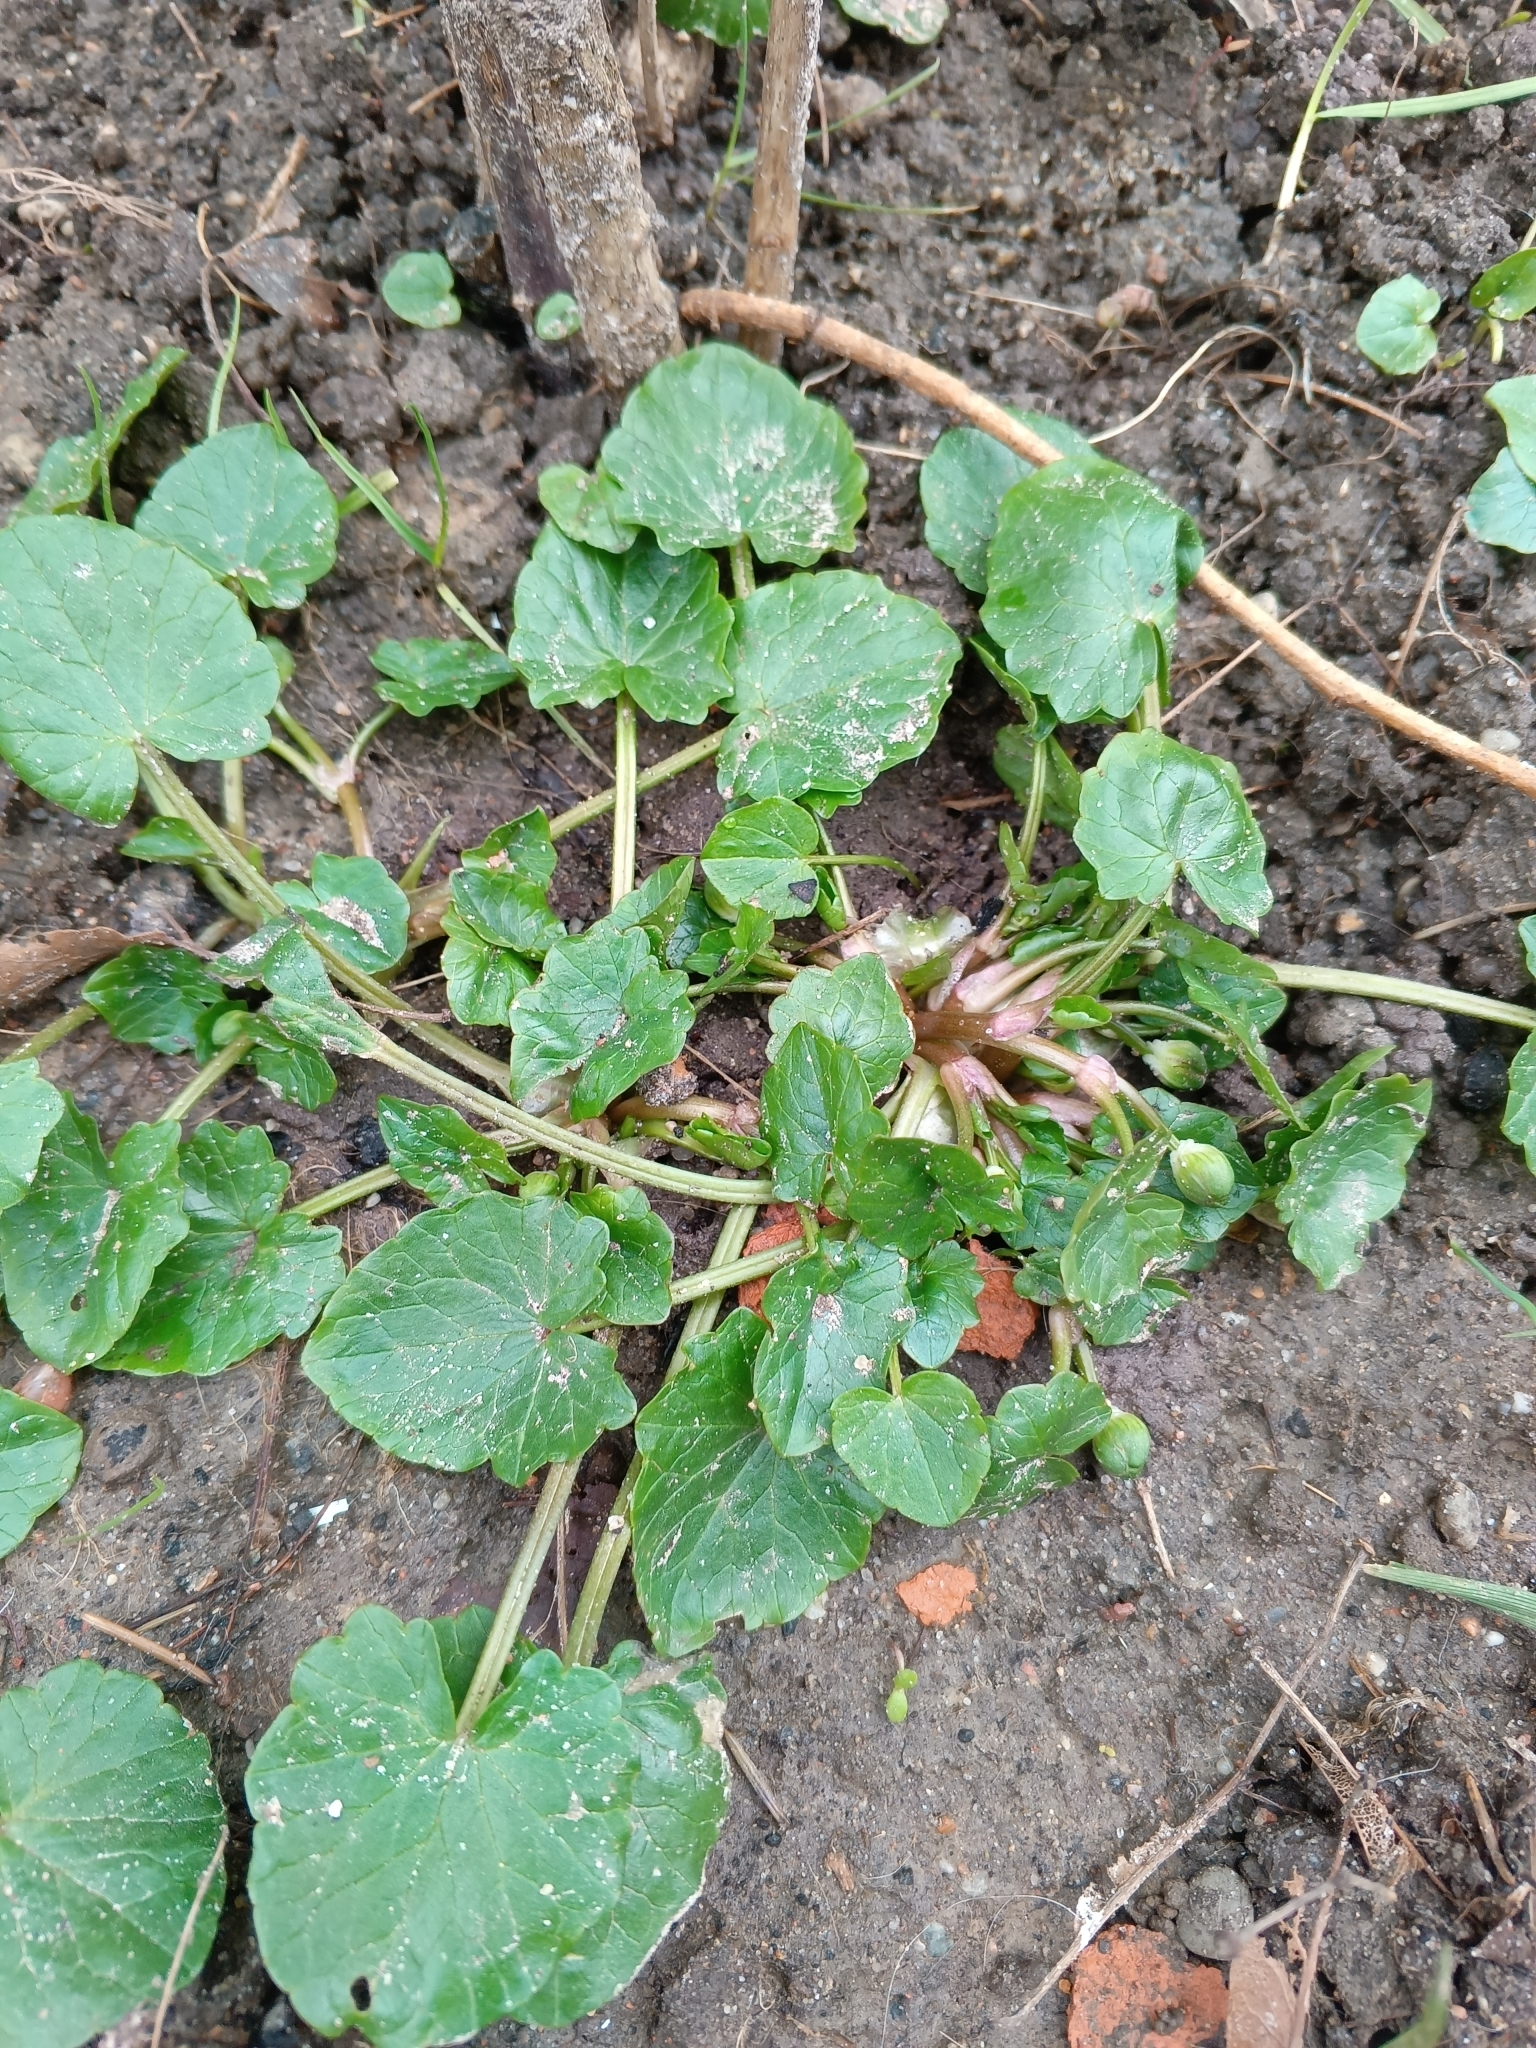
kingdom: Plantae
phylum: Tracheophyta
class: Magnoliopsida
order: Ranunculales
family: Ranunculaceae
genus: Ficaria
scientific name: Ficaria verna
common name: Lesser celandine
